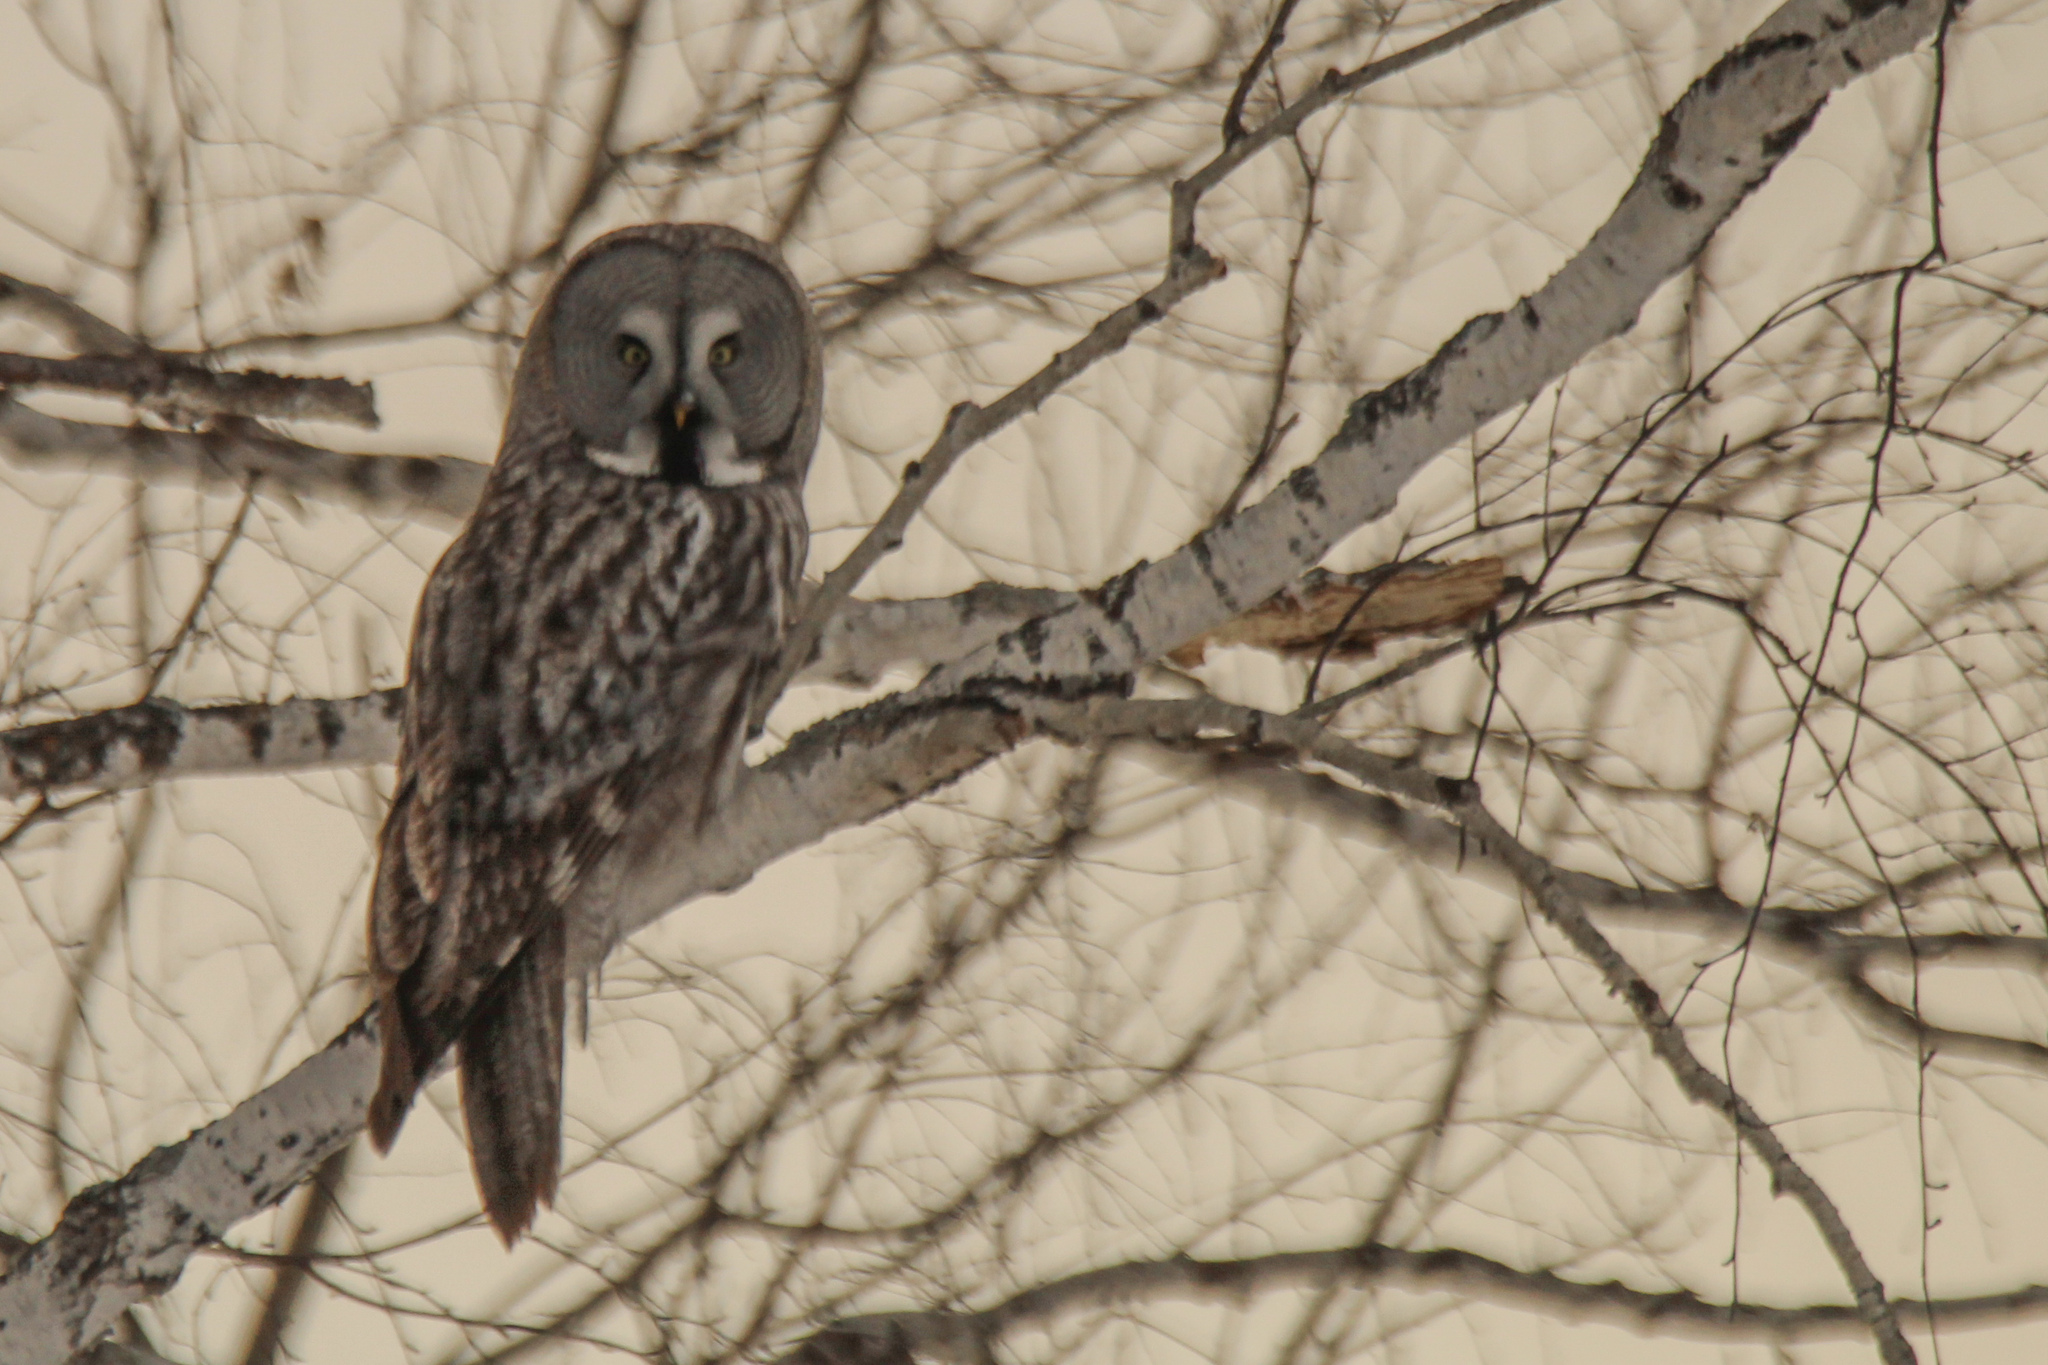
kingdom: Animalia
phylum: Chordata
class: Aves
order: Strigiformes
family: Strigidae
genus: Strix
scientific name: Strix nebulosa
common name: Great grey owl
